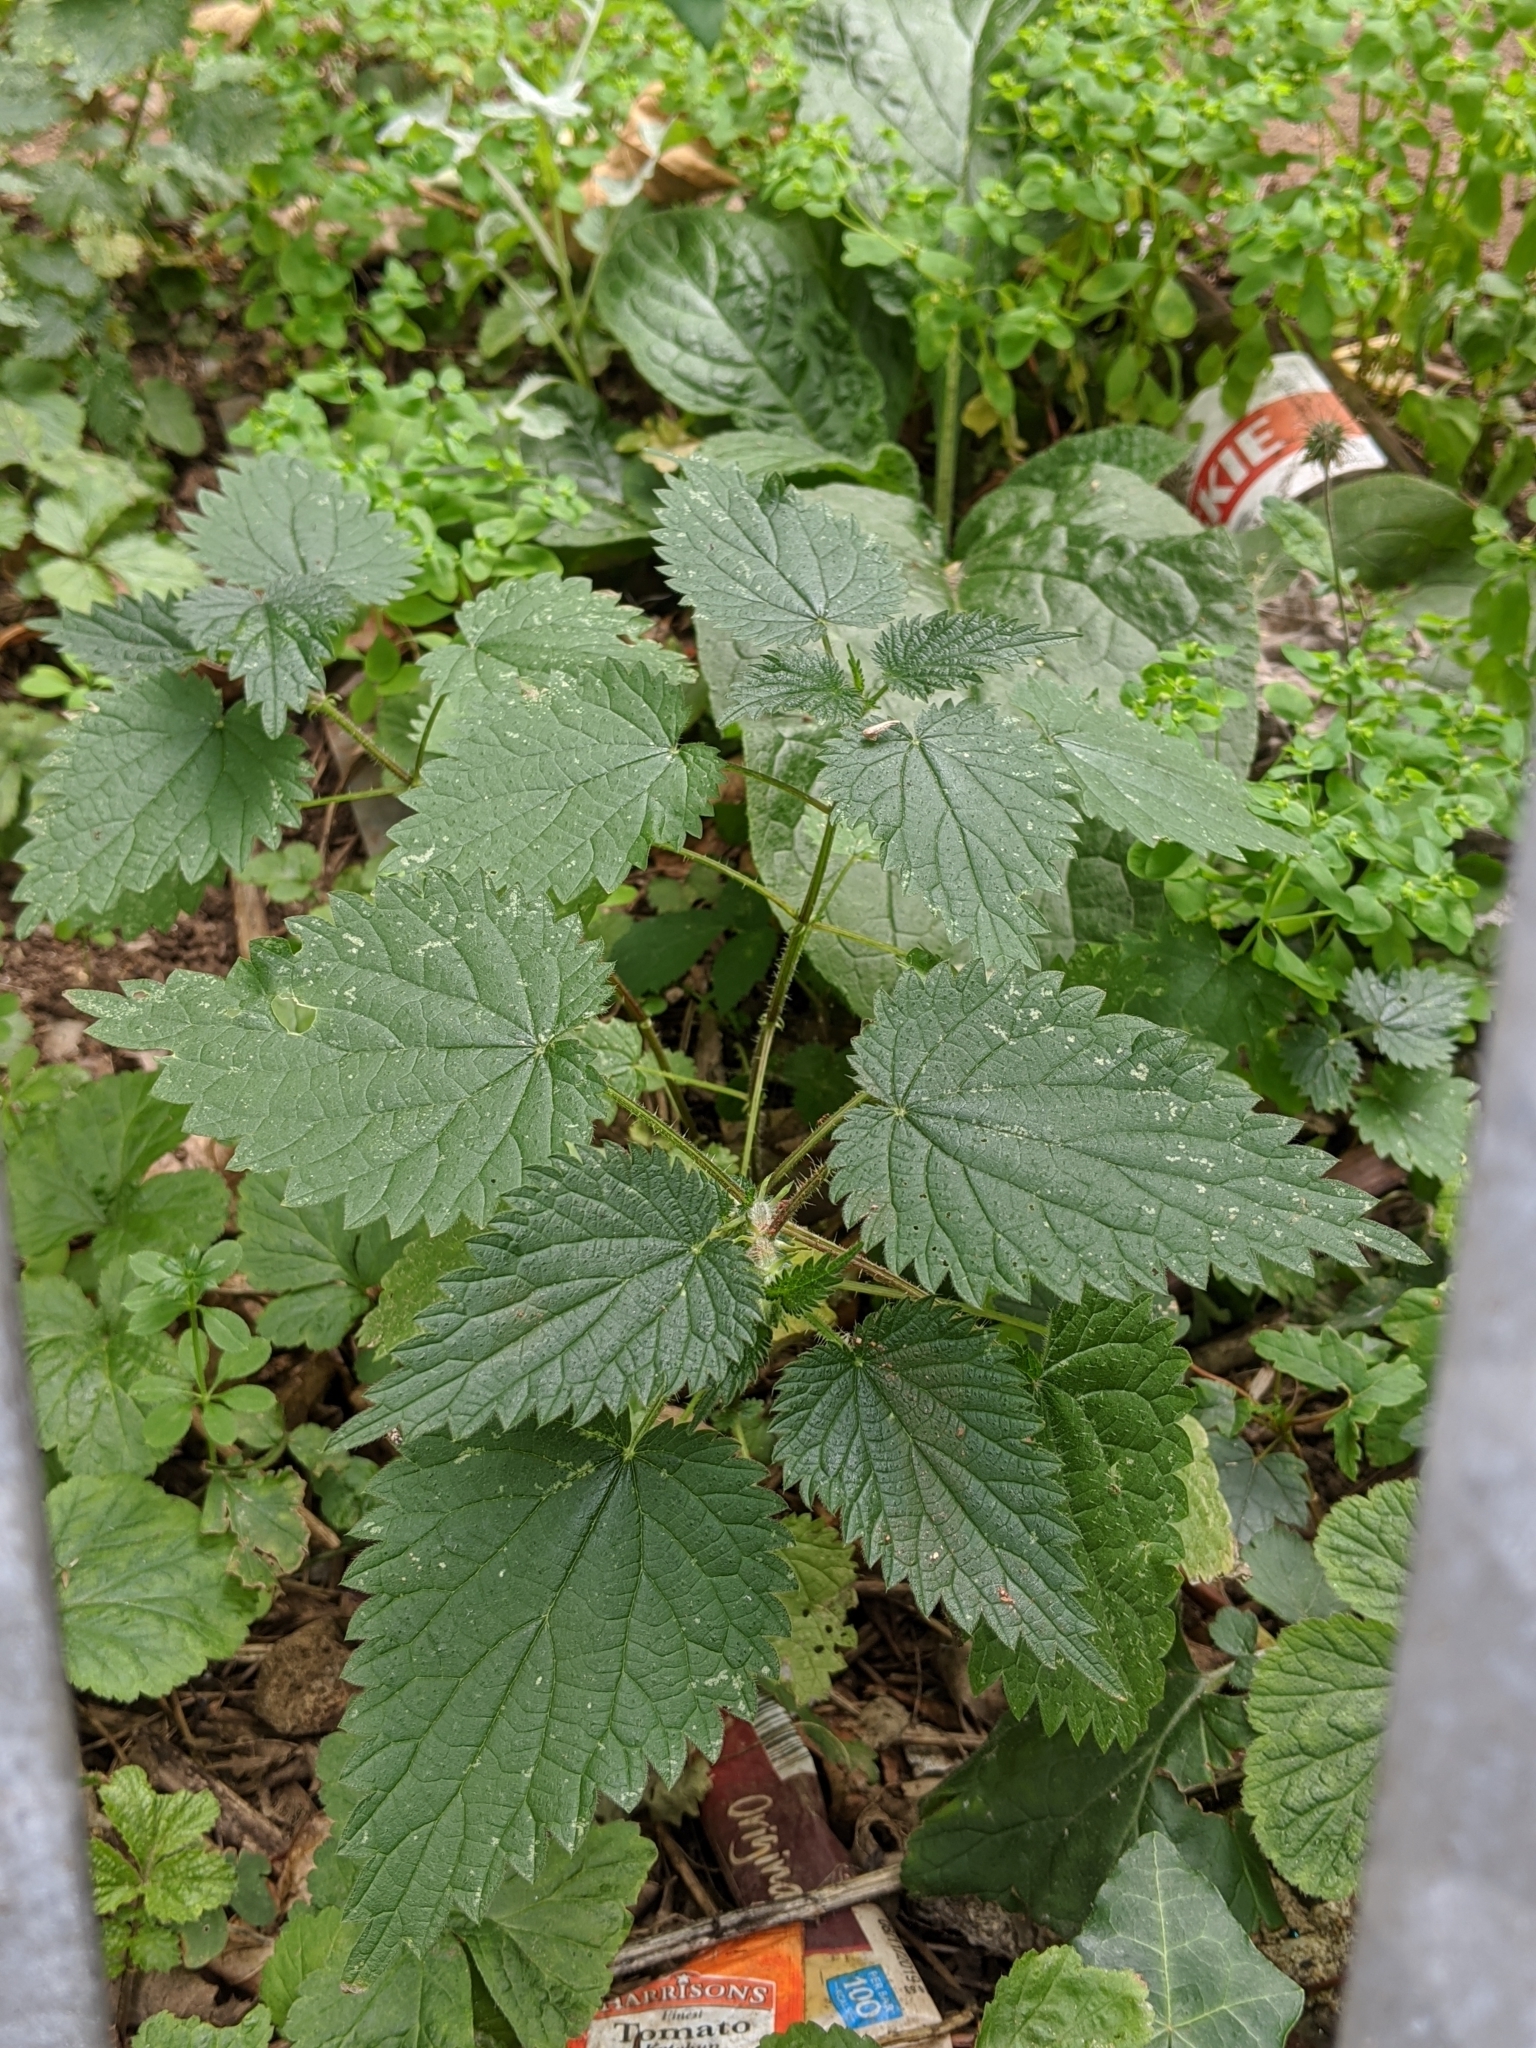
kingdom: Plantae
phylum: Tracheophyta
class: Magnoliopsida
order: Rosales
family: Urticaceae
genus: Urtica
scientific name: Urtica dioica
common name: Common nettle
